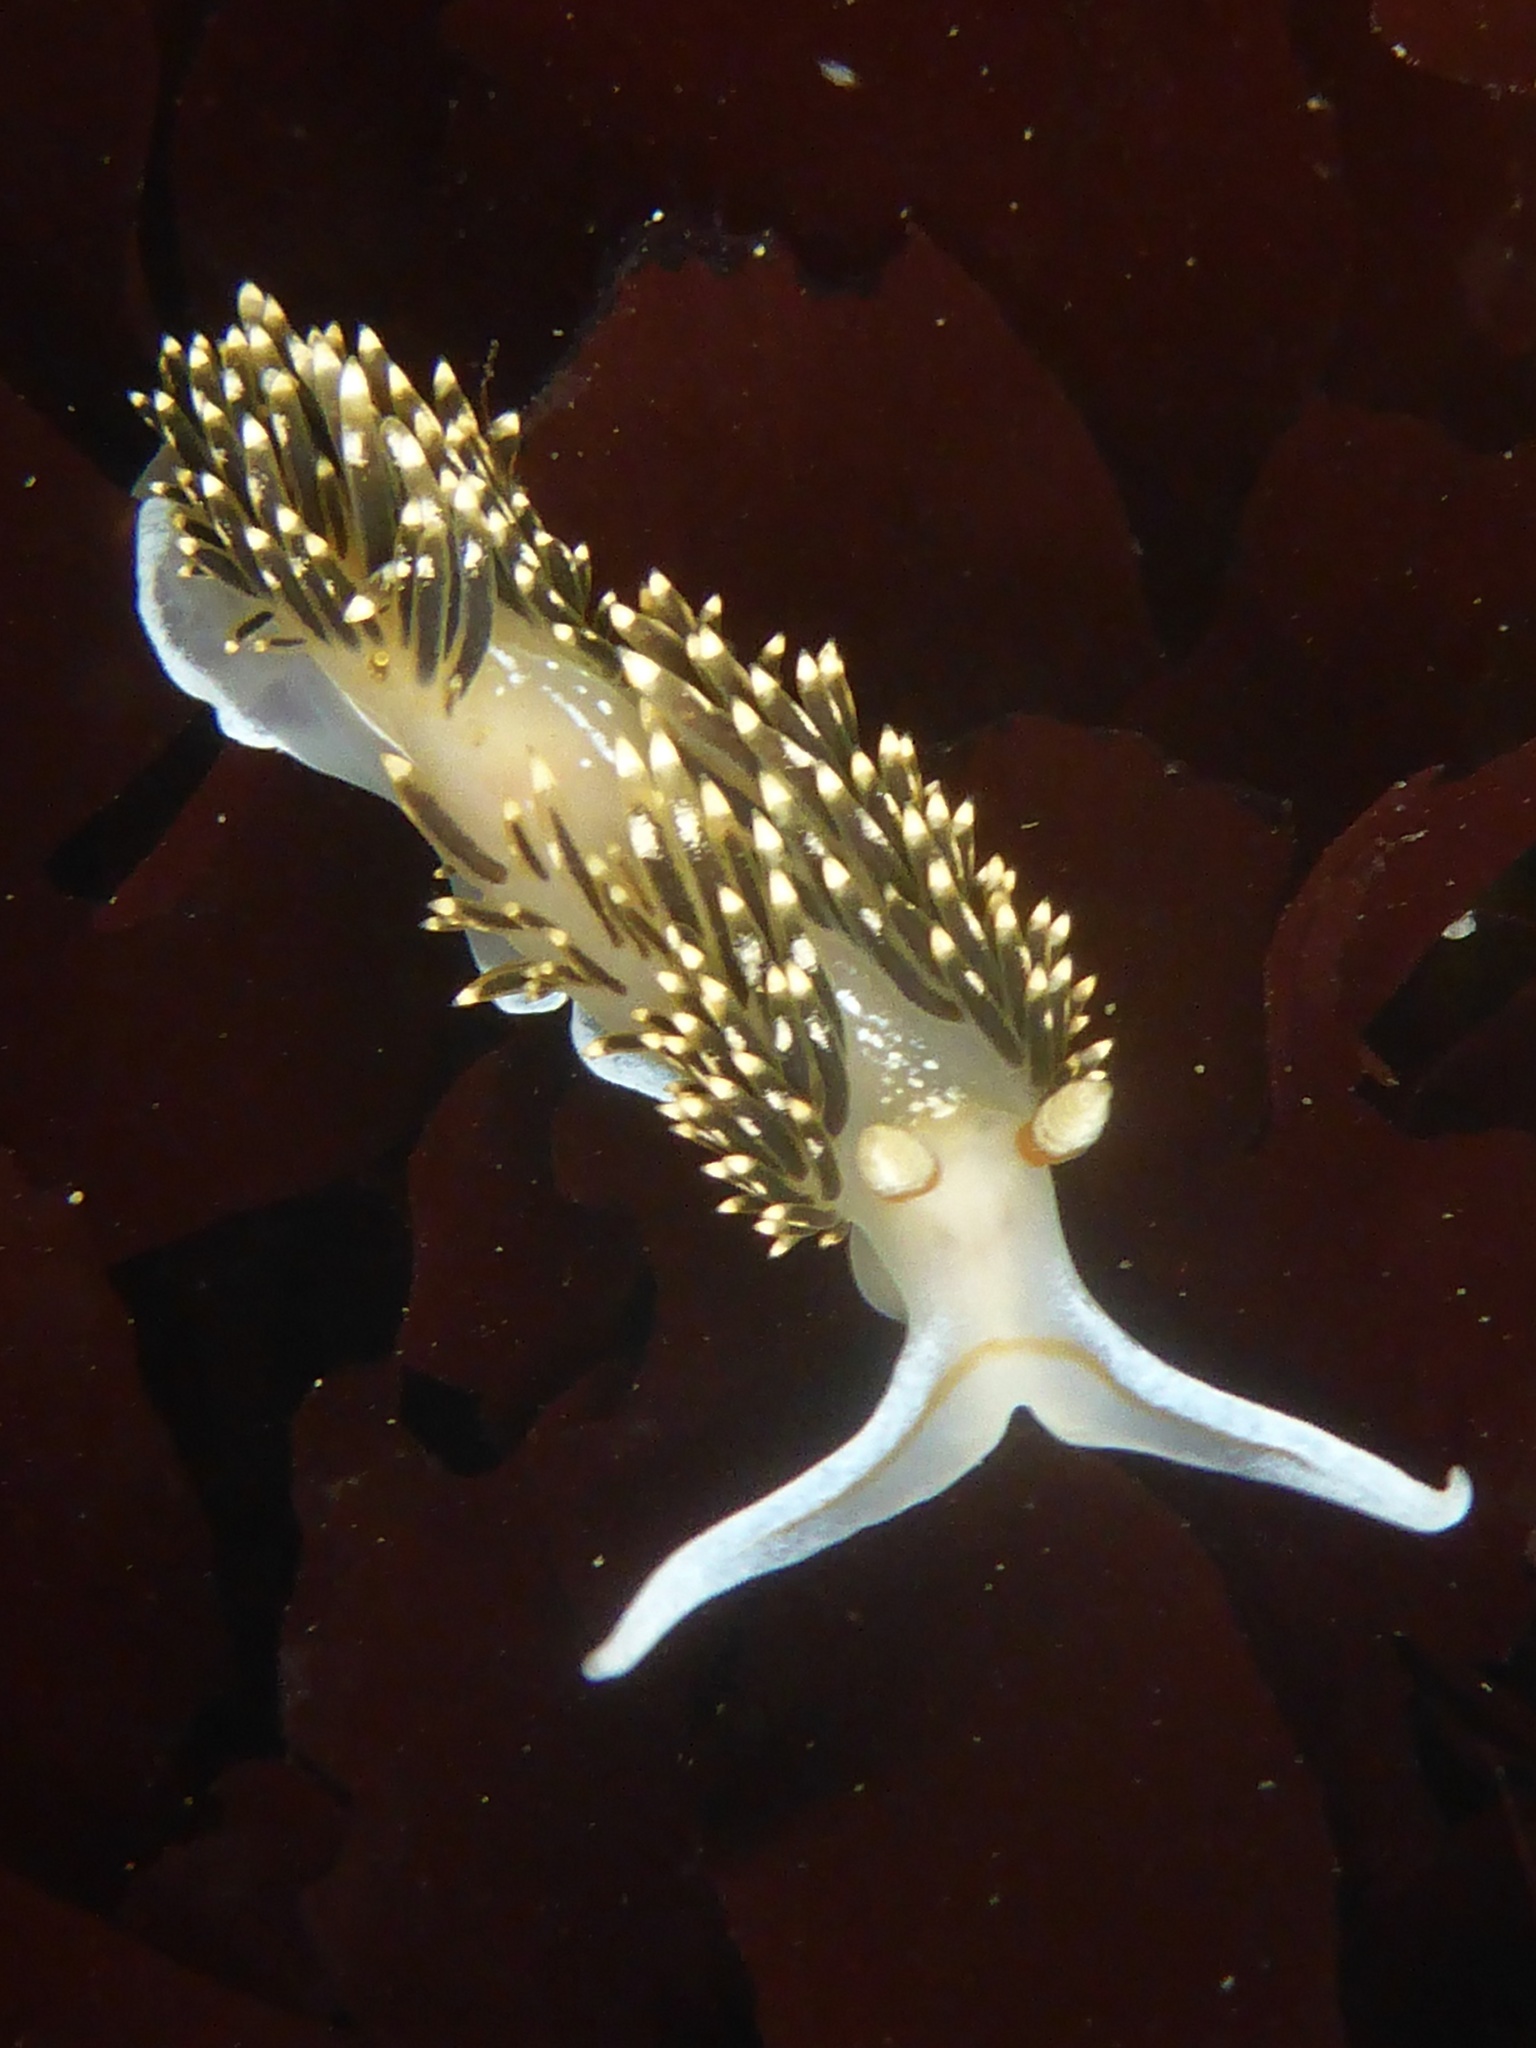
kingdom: Animalia
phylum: Mollusca
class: Gastropoda
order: Nudibranchia
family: Facelinidae
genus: Phidiana
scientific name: Phidiana hiltoni
